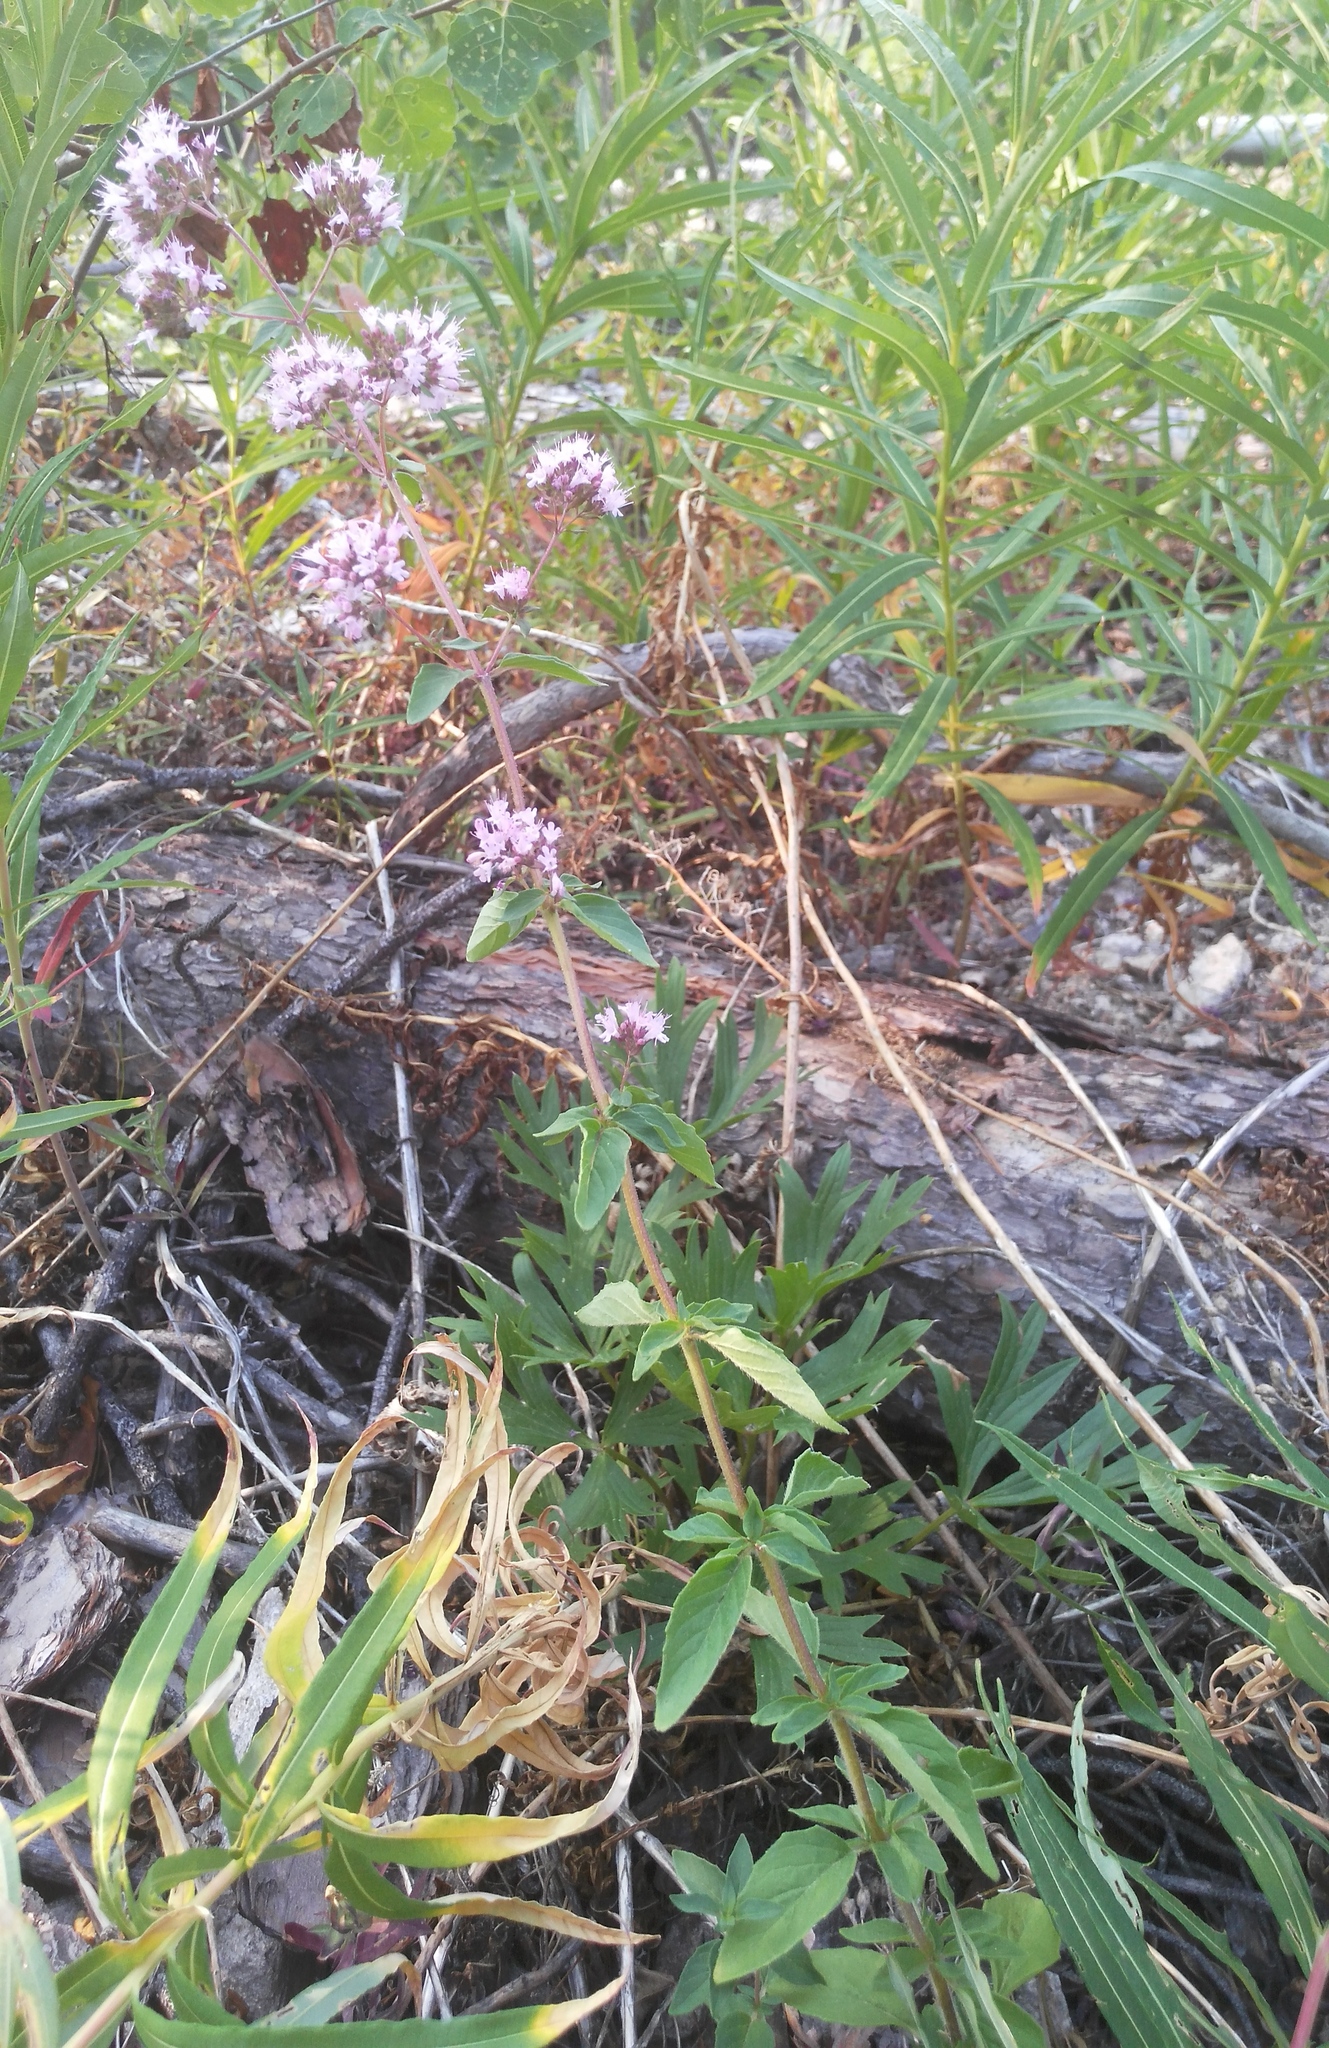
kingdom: Plantae
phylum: Tracheophyta
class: Magnoliopsida
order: Lamiales
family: Lamiaceae
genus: Origanum
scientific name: Origanum vulgare
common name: Wild marjoram
